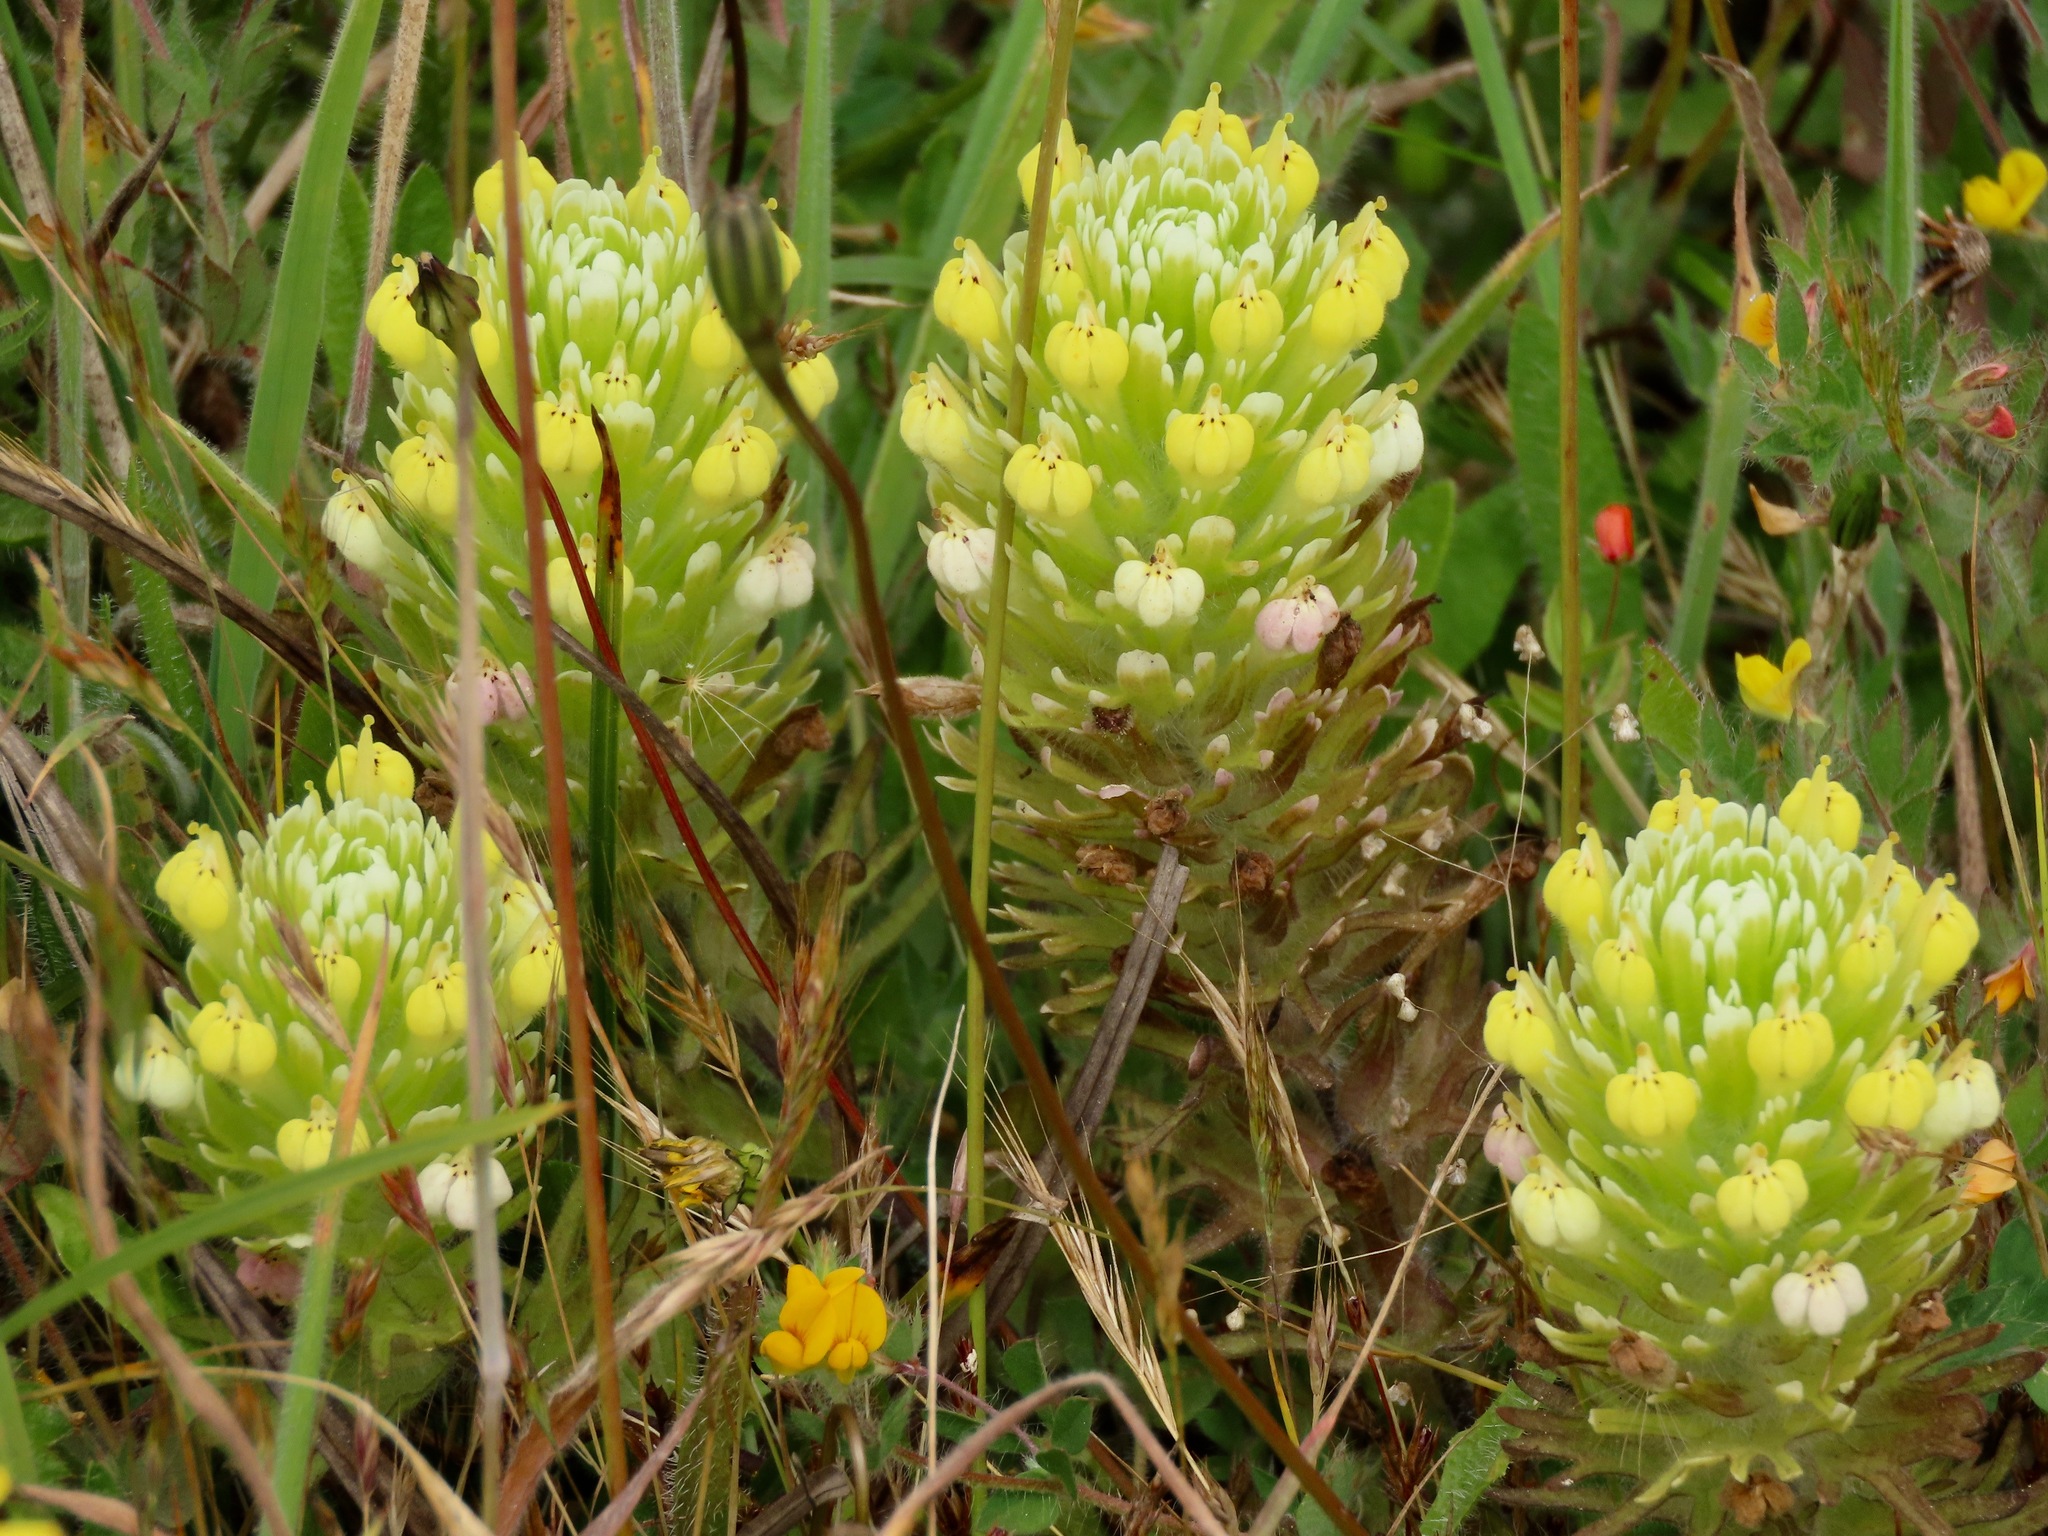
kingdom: Plantae
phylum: Tracheophyta
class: Magnoliopsida
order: Lamiales
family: Orobanchaceae
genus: Castilleja
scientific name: Castilleja ambigua
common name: Johnny-nip
